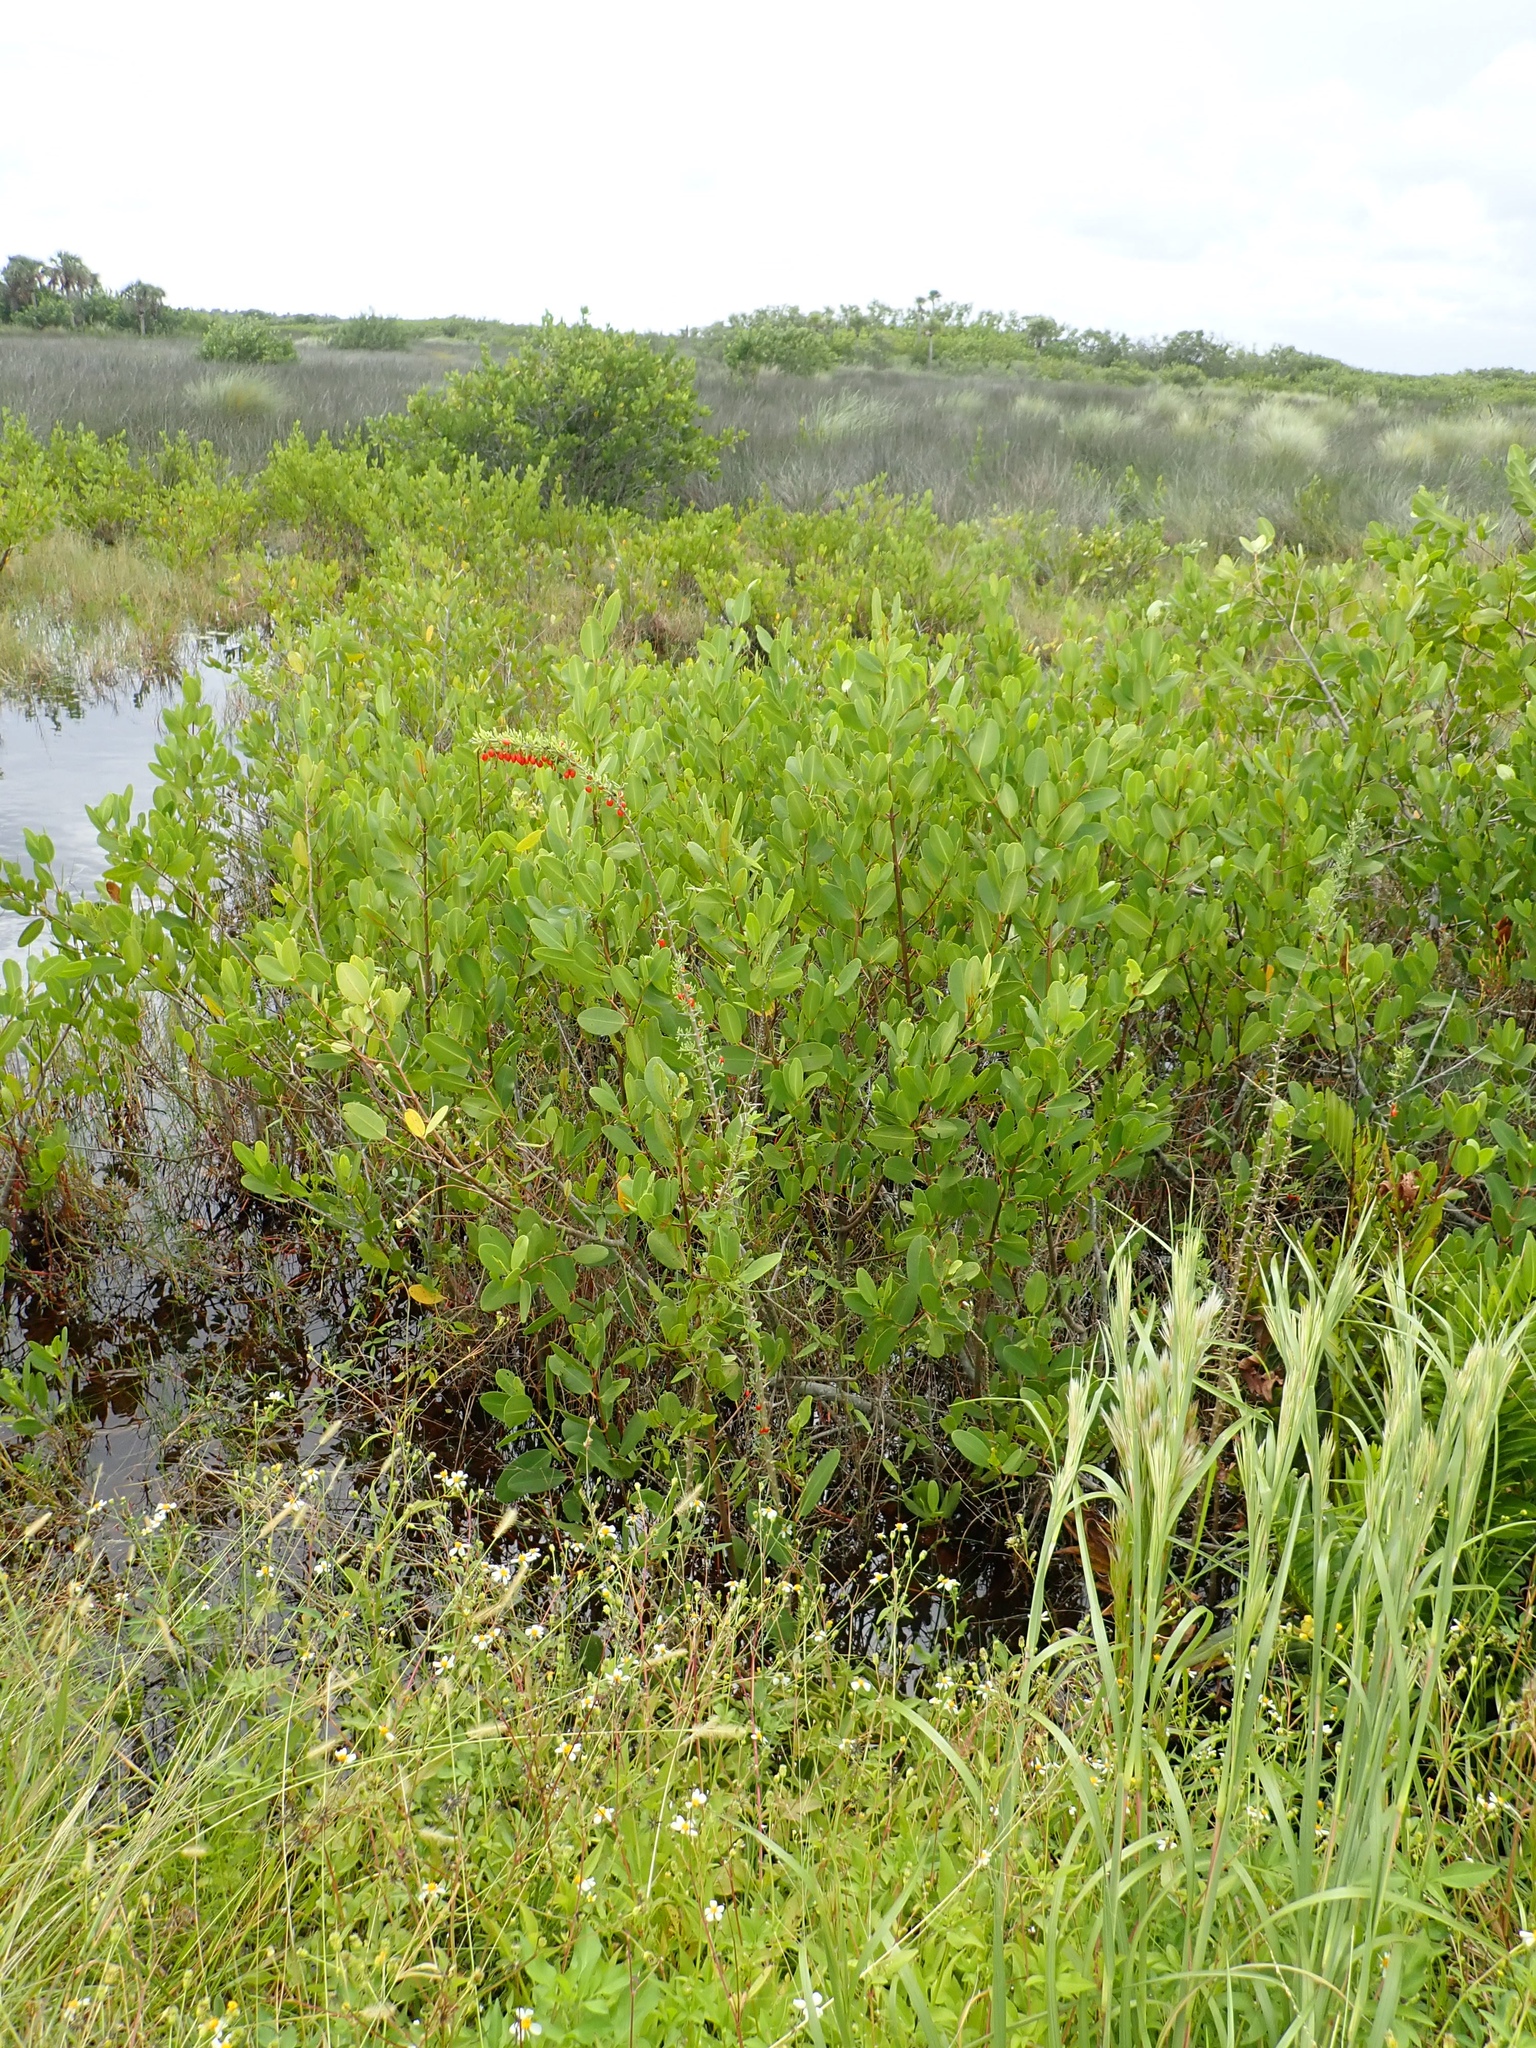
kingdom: Plantae
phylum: Tracheophyta
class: Magnoliopsida
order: Solanales
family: Solanaceae
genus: Lycium
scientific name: Lycium carolinianum
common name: Christmasberry
